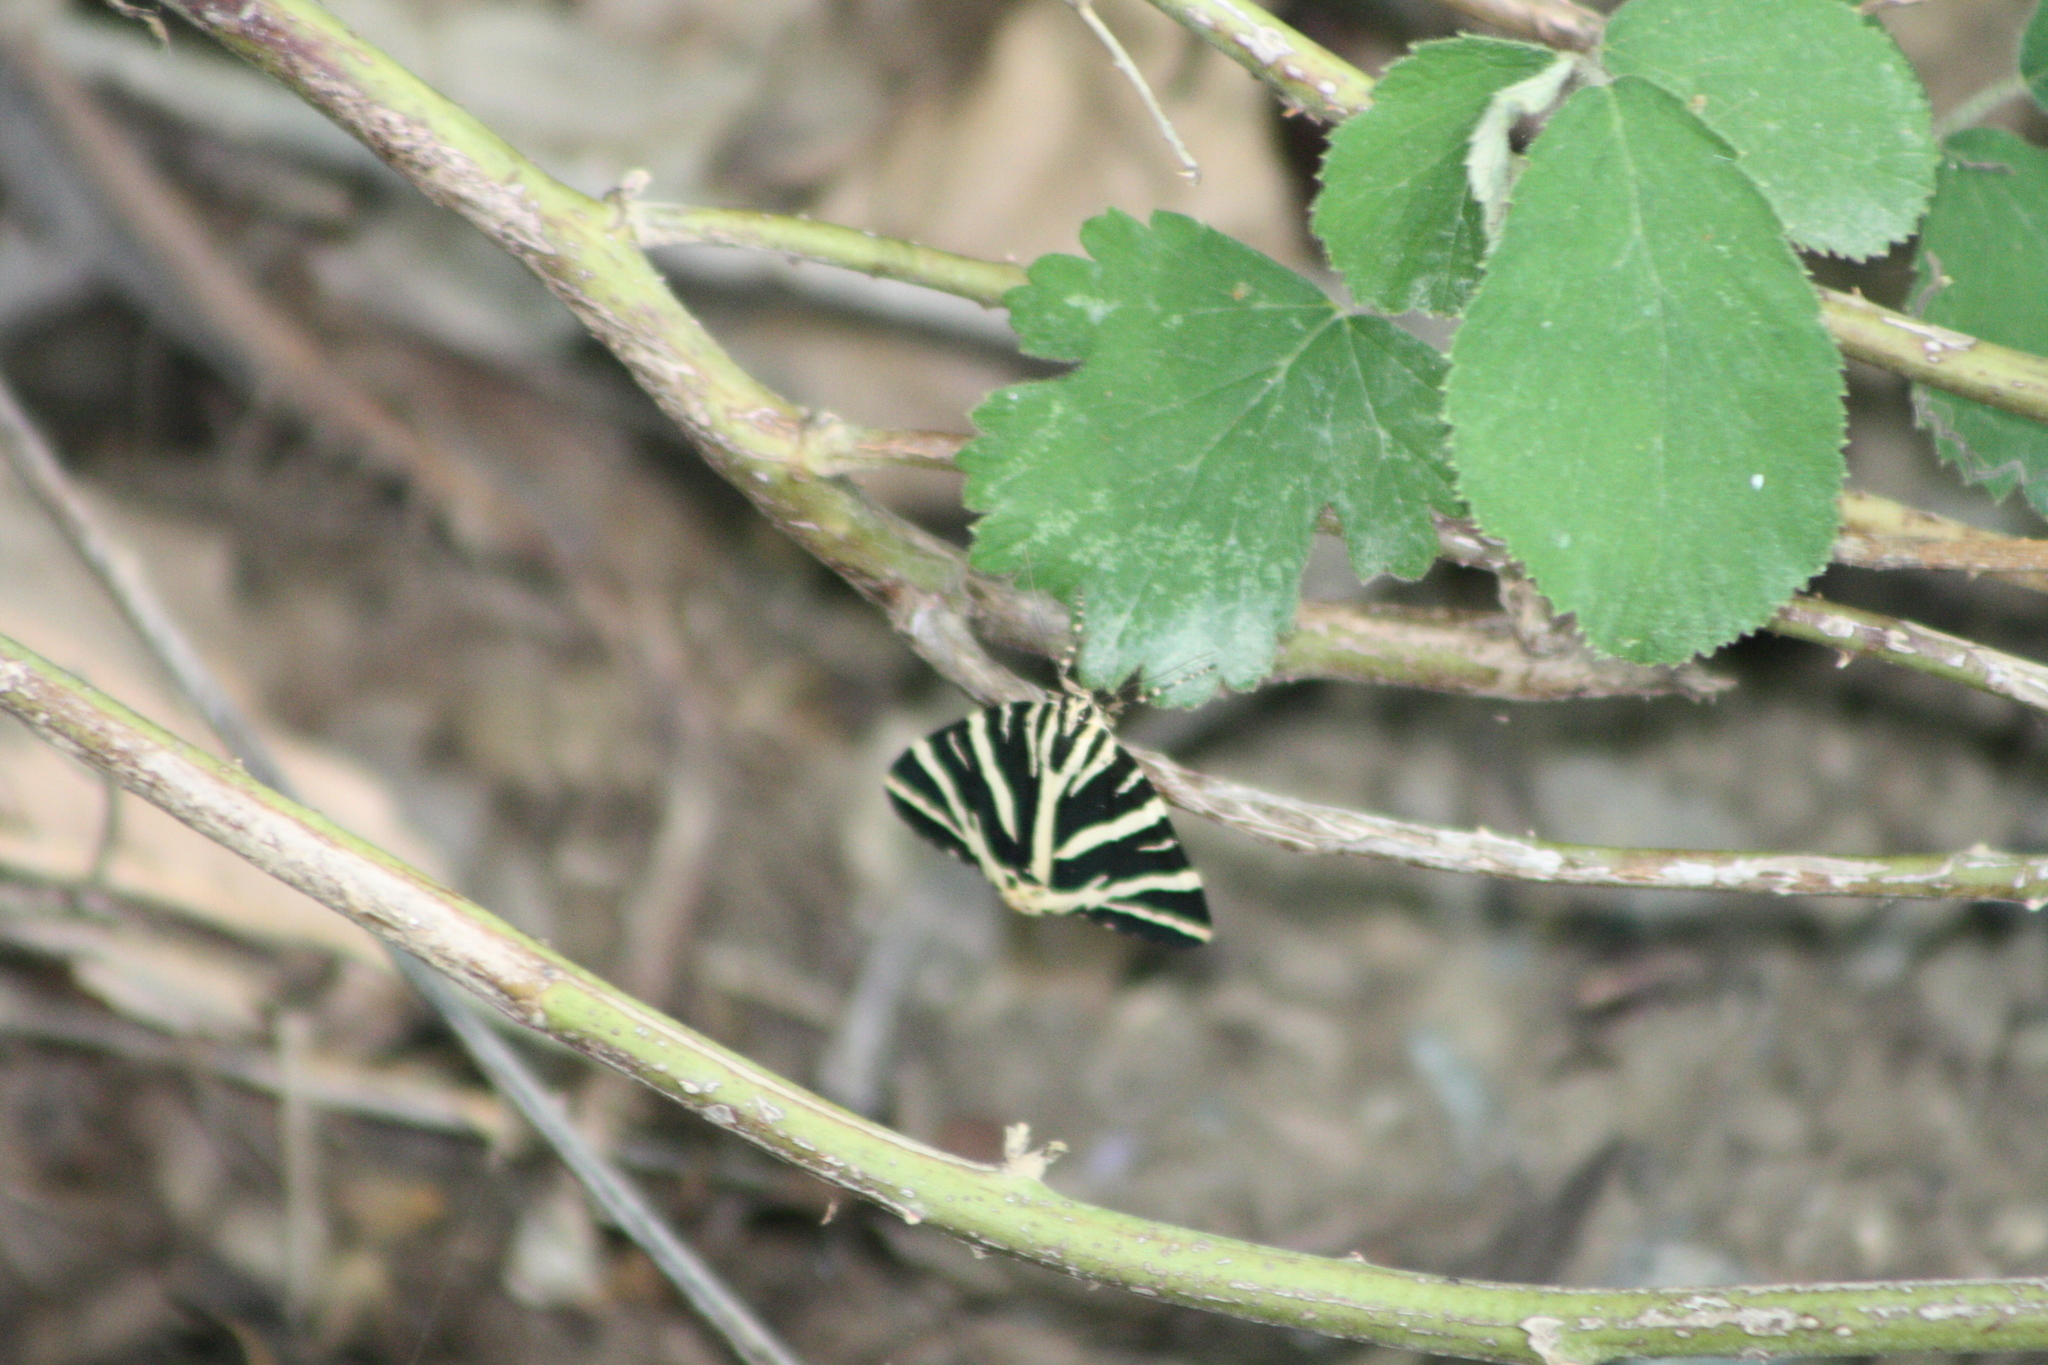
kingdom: Animalia
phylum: Arthropoda
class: Insecta
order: Lepidoptera
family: Erebidae
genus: Euplagia
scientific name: Euplagia quadripunctaria
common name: Jersey tiger
